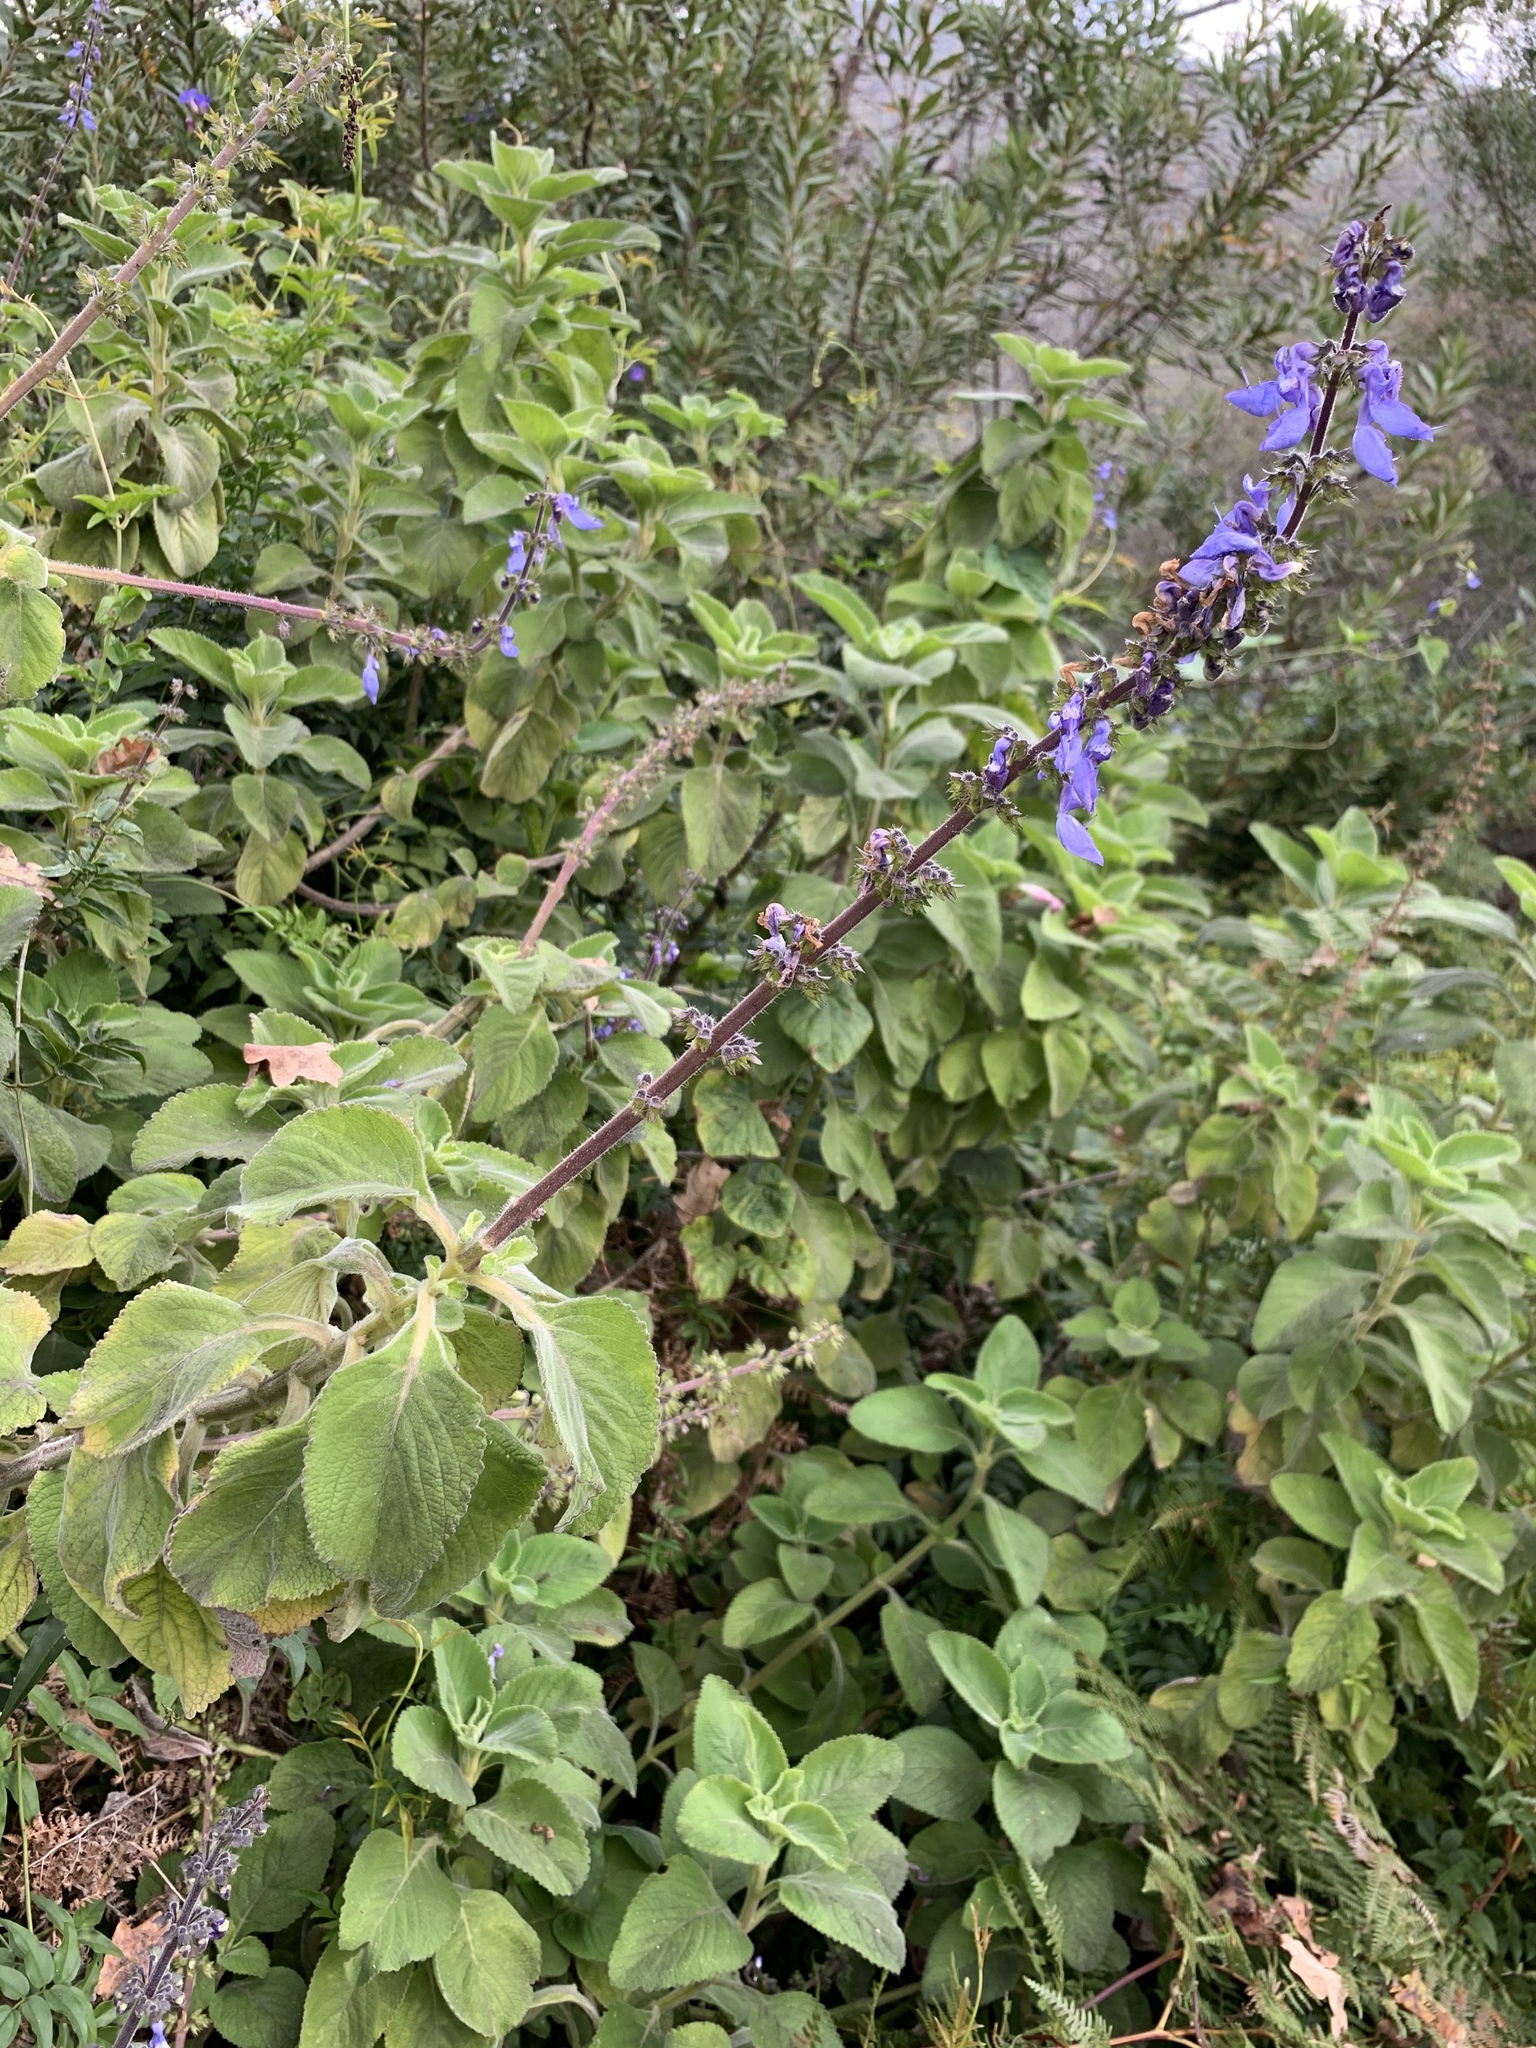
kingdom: Plantae
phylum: Tracheophyta
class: Magnoliopsida
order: Lamiales
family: Lamiaceae
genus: Coleus
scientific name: Coleus barbatus
